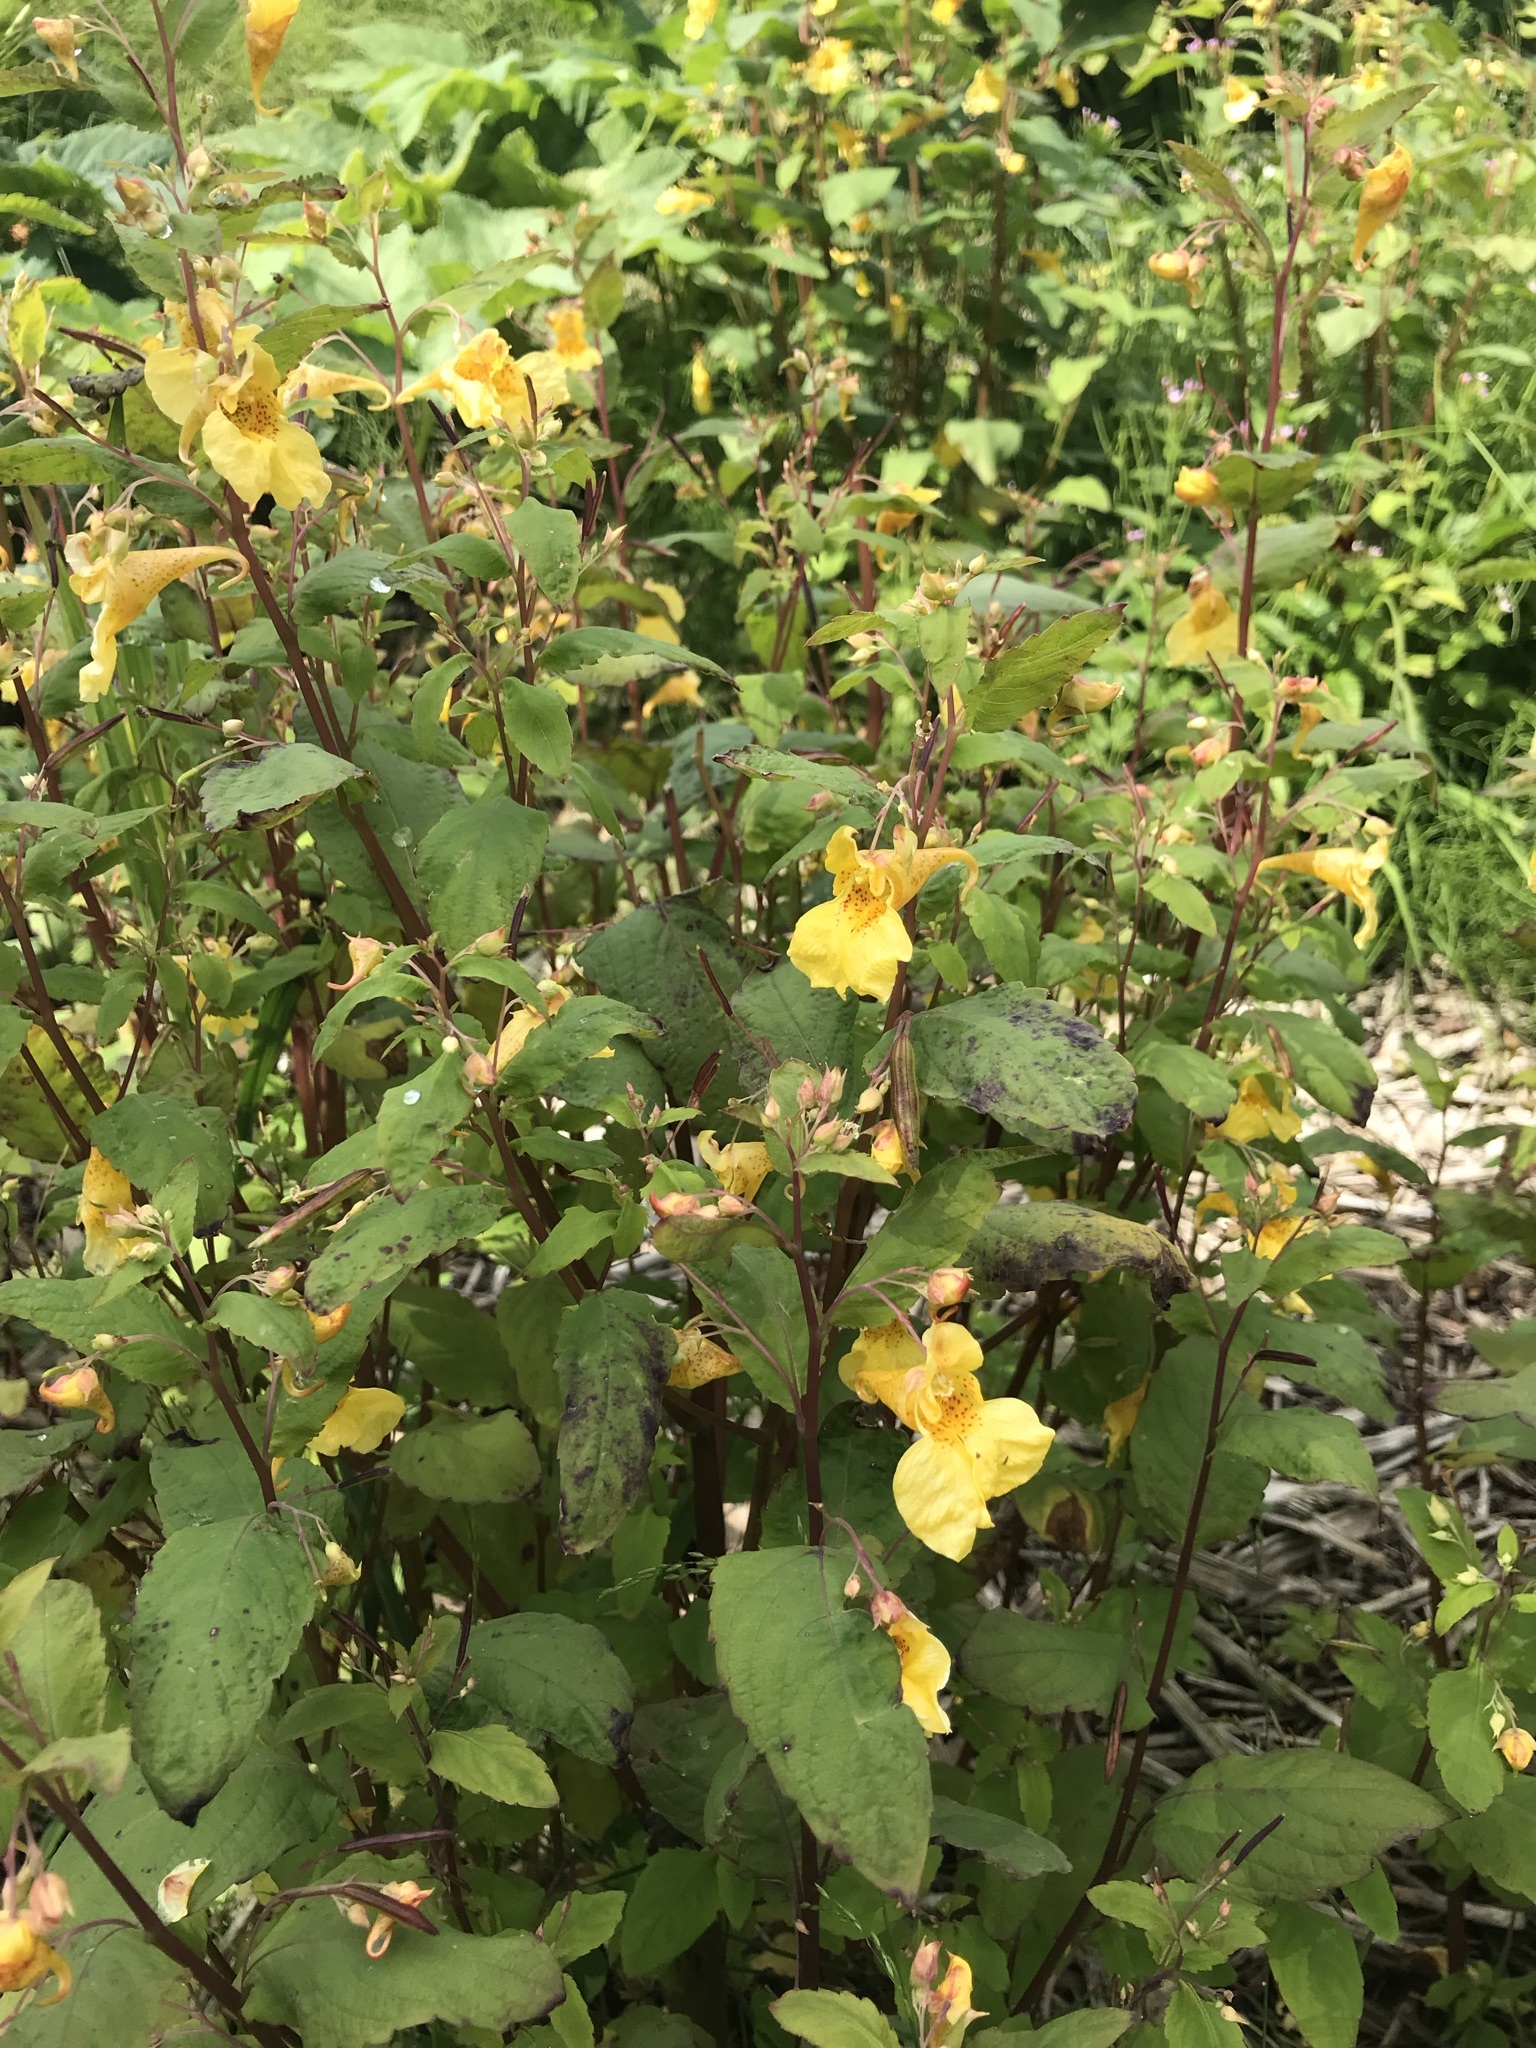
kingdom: Plantae
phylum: Tracheophyta
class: Magnoliopsida
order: Ericales
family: Balsaminaceae
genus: Impatiens
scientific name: Impatiens noli-tangere
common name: Touch-me-not balsam
